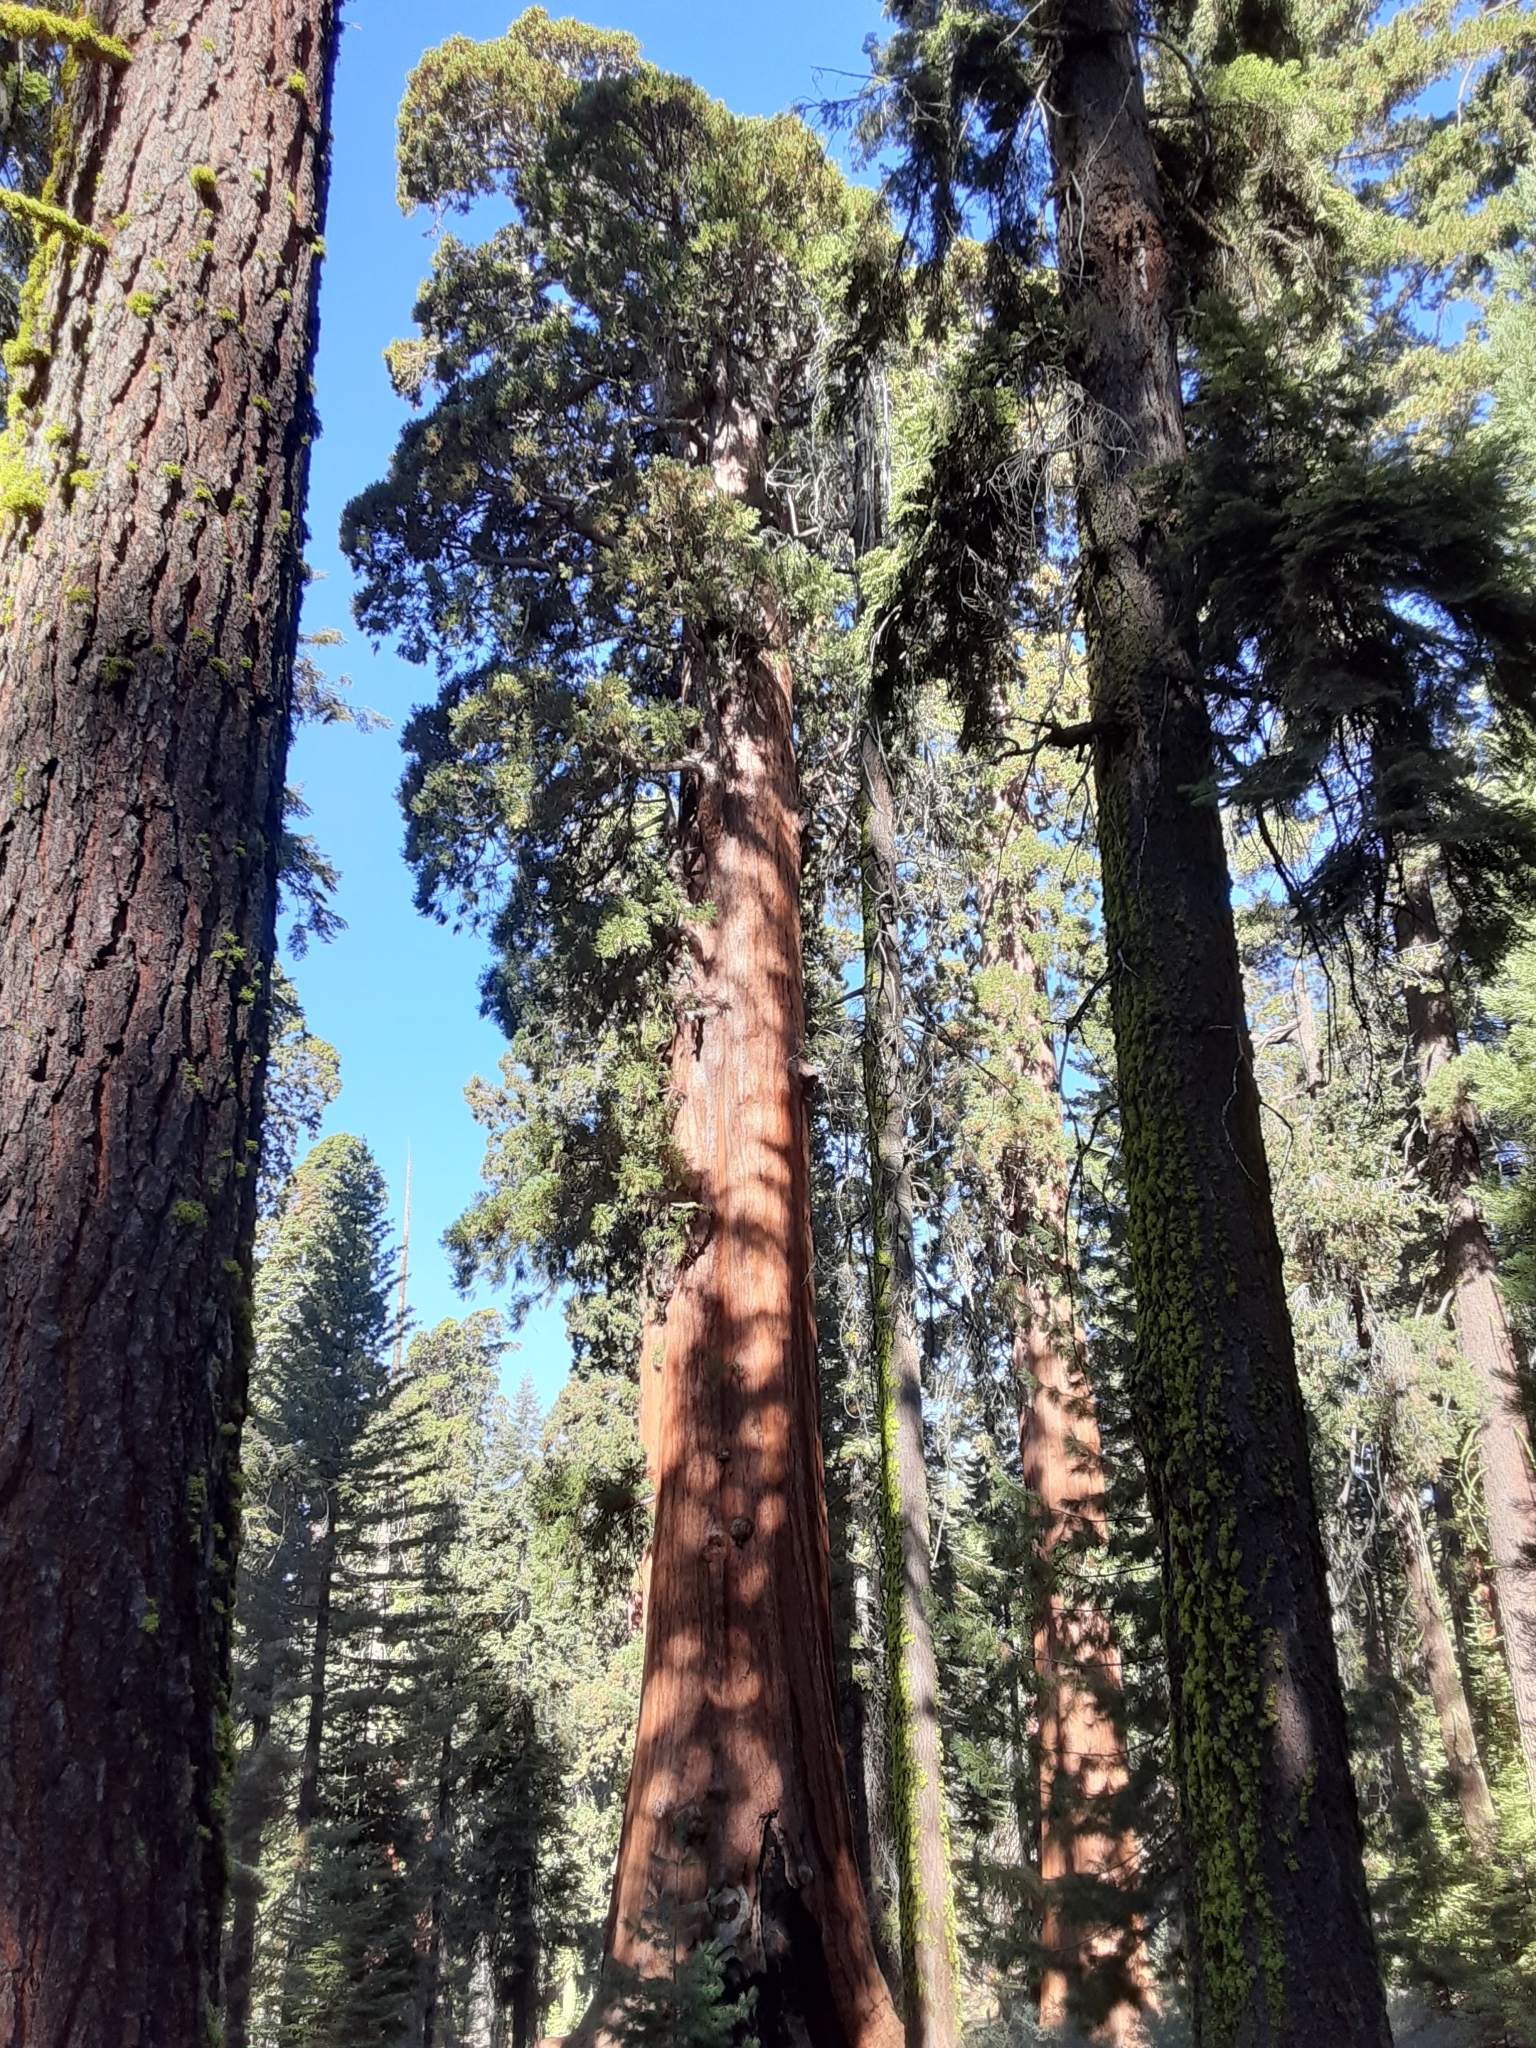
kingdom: Plantae
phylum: Tracheophyta
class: Pinopsida
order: Pinales
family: Cupressaceae
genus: Sequoiadendron
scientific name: Sequoiadendron giganteum
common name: Wellingtonia
